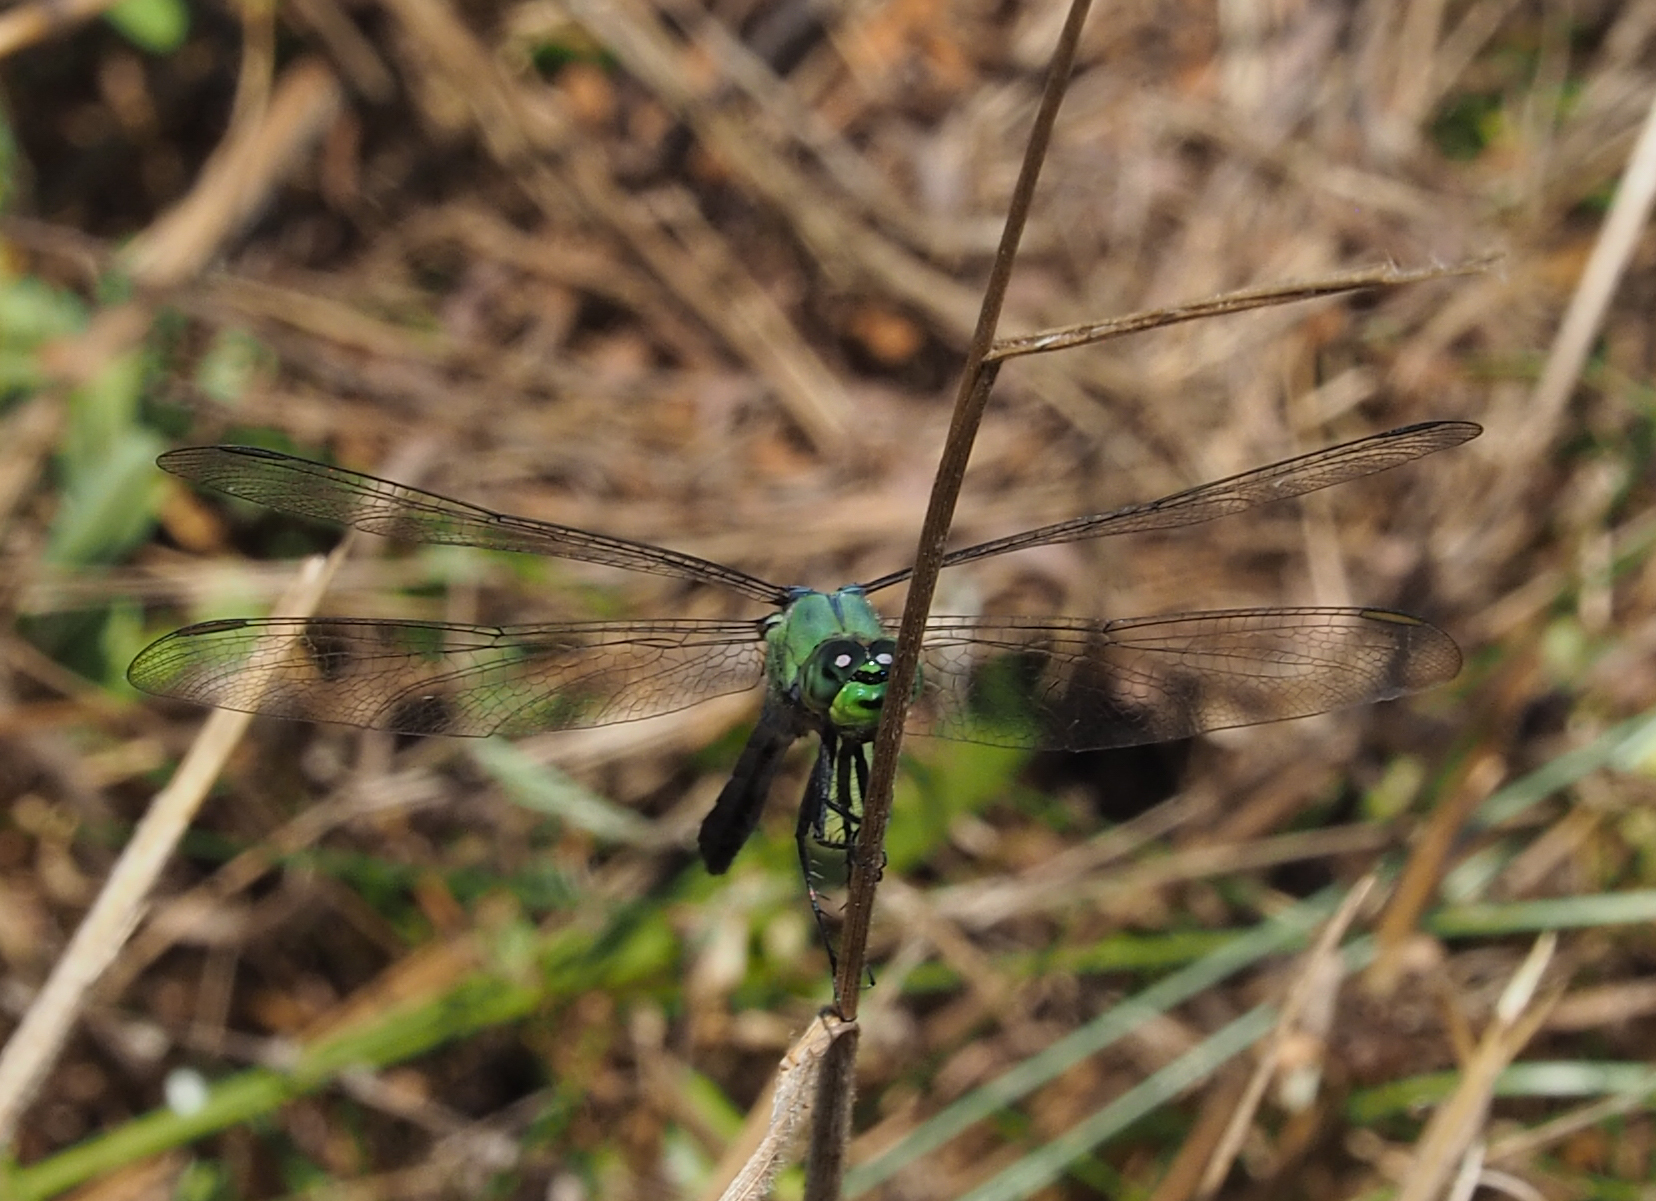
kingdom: Animalia
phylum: Arthropoda
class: Insecta
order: Odonata
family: Libellulidae
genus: Erythemis
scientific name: Erythemis simplicicollis
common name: Eastern pondhawk
